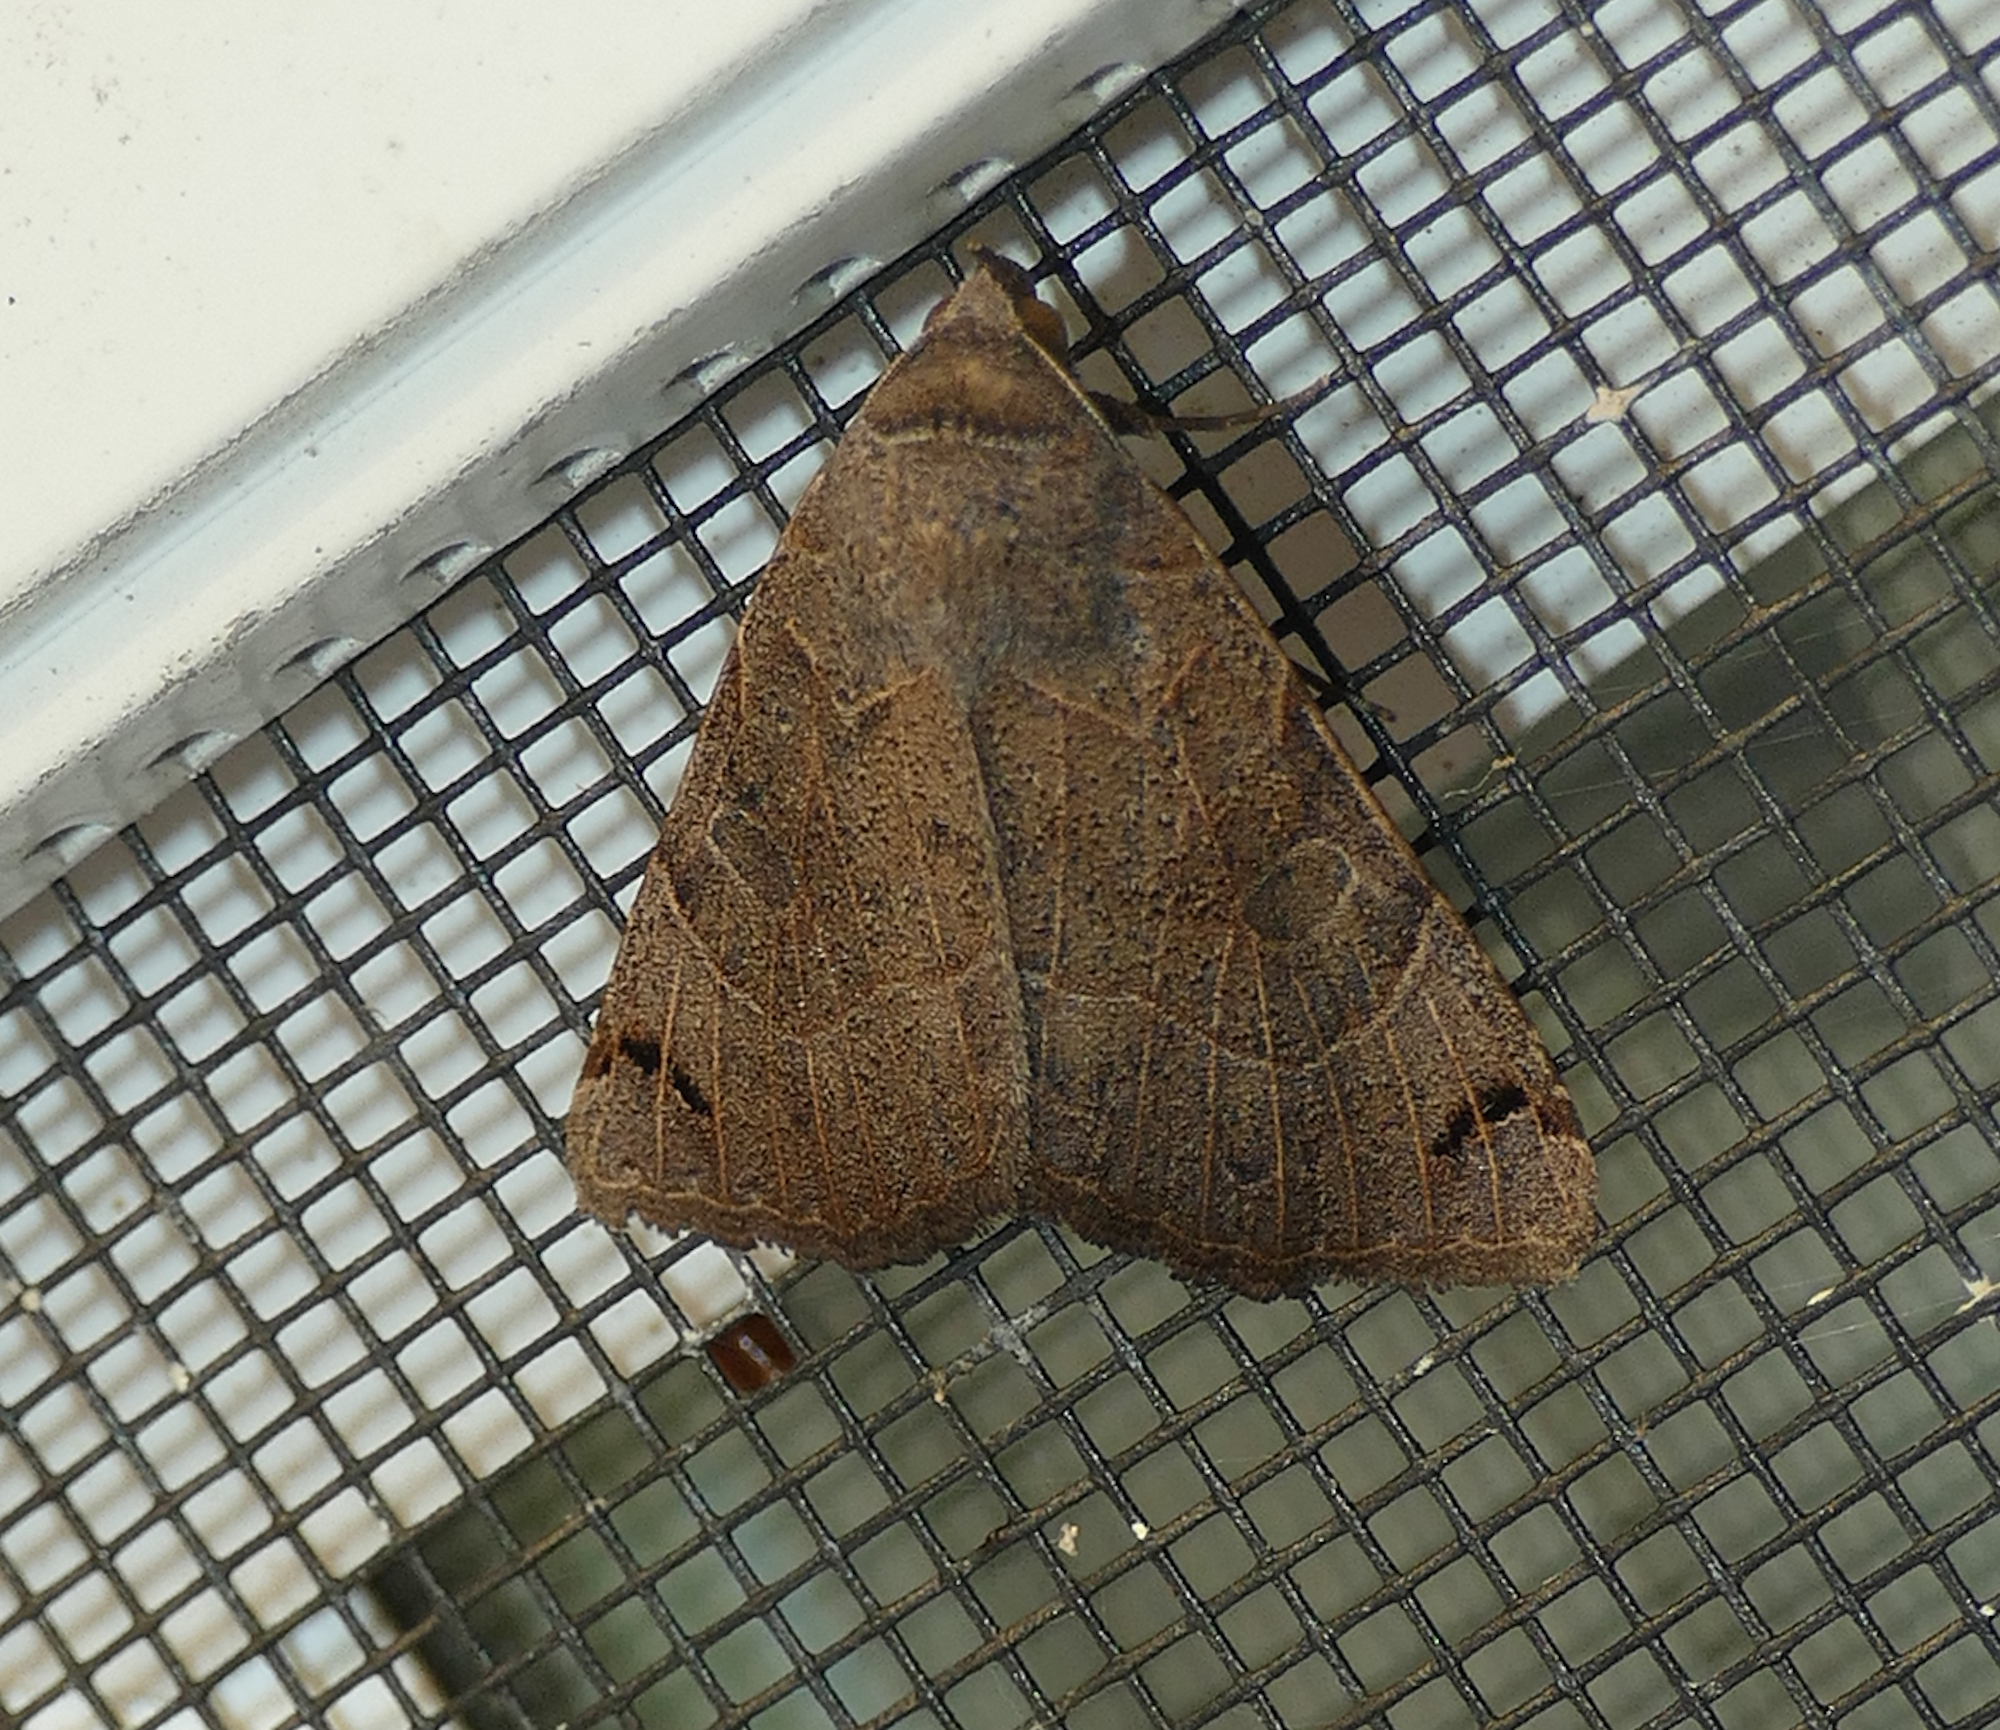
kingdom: Animalia
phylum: Arthropoda
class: Insecta
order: Lepidoptera
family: Erebidae
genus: Isogona
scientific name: Isogona scindens
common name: Owlet moth
